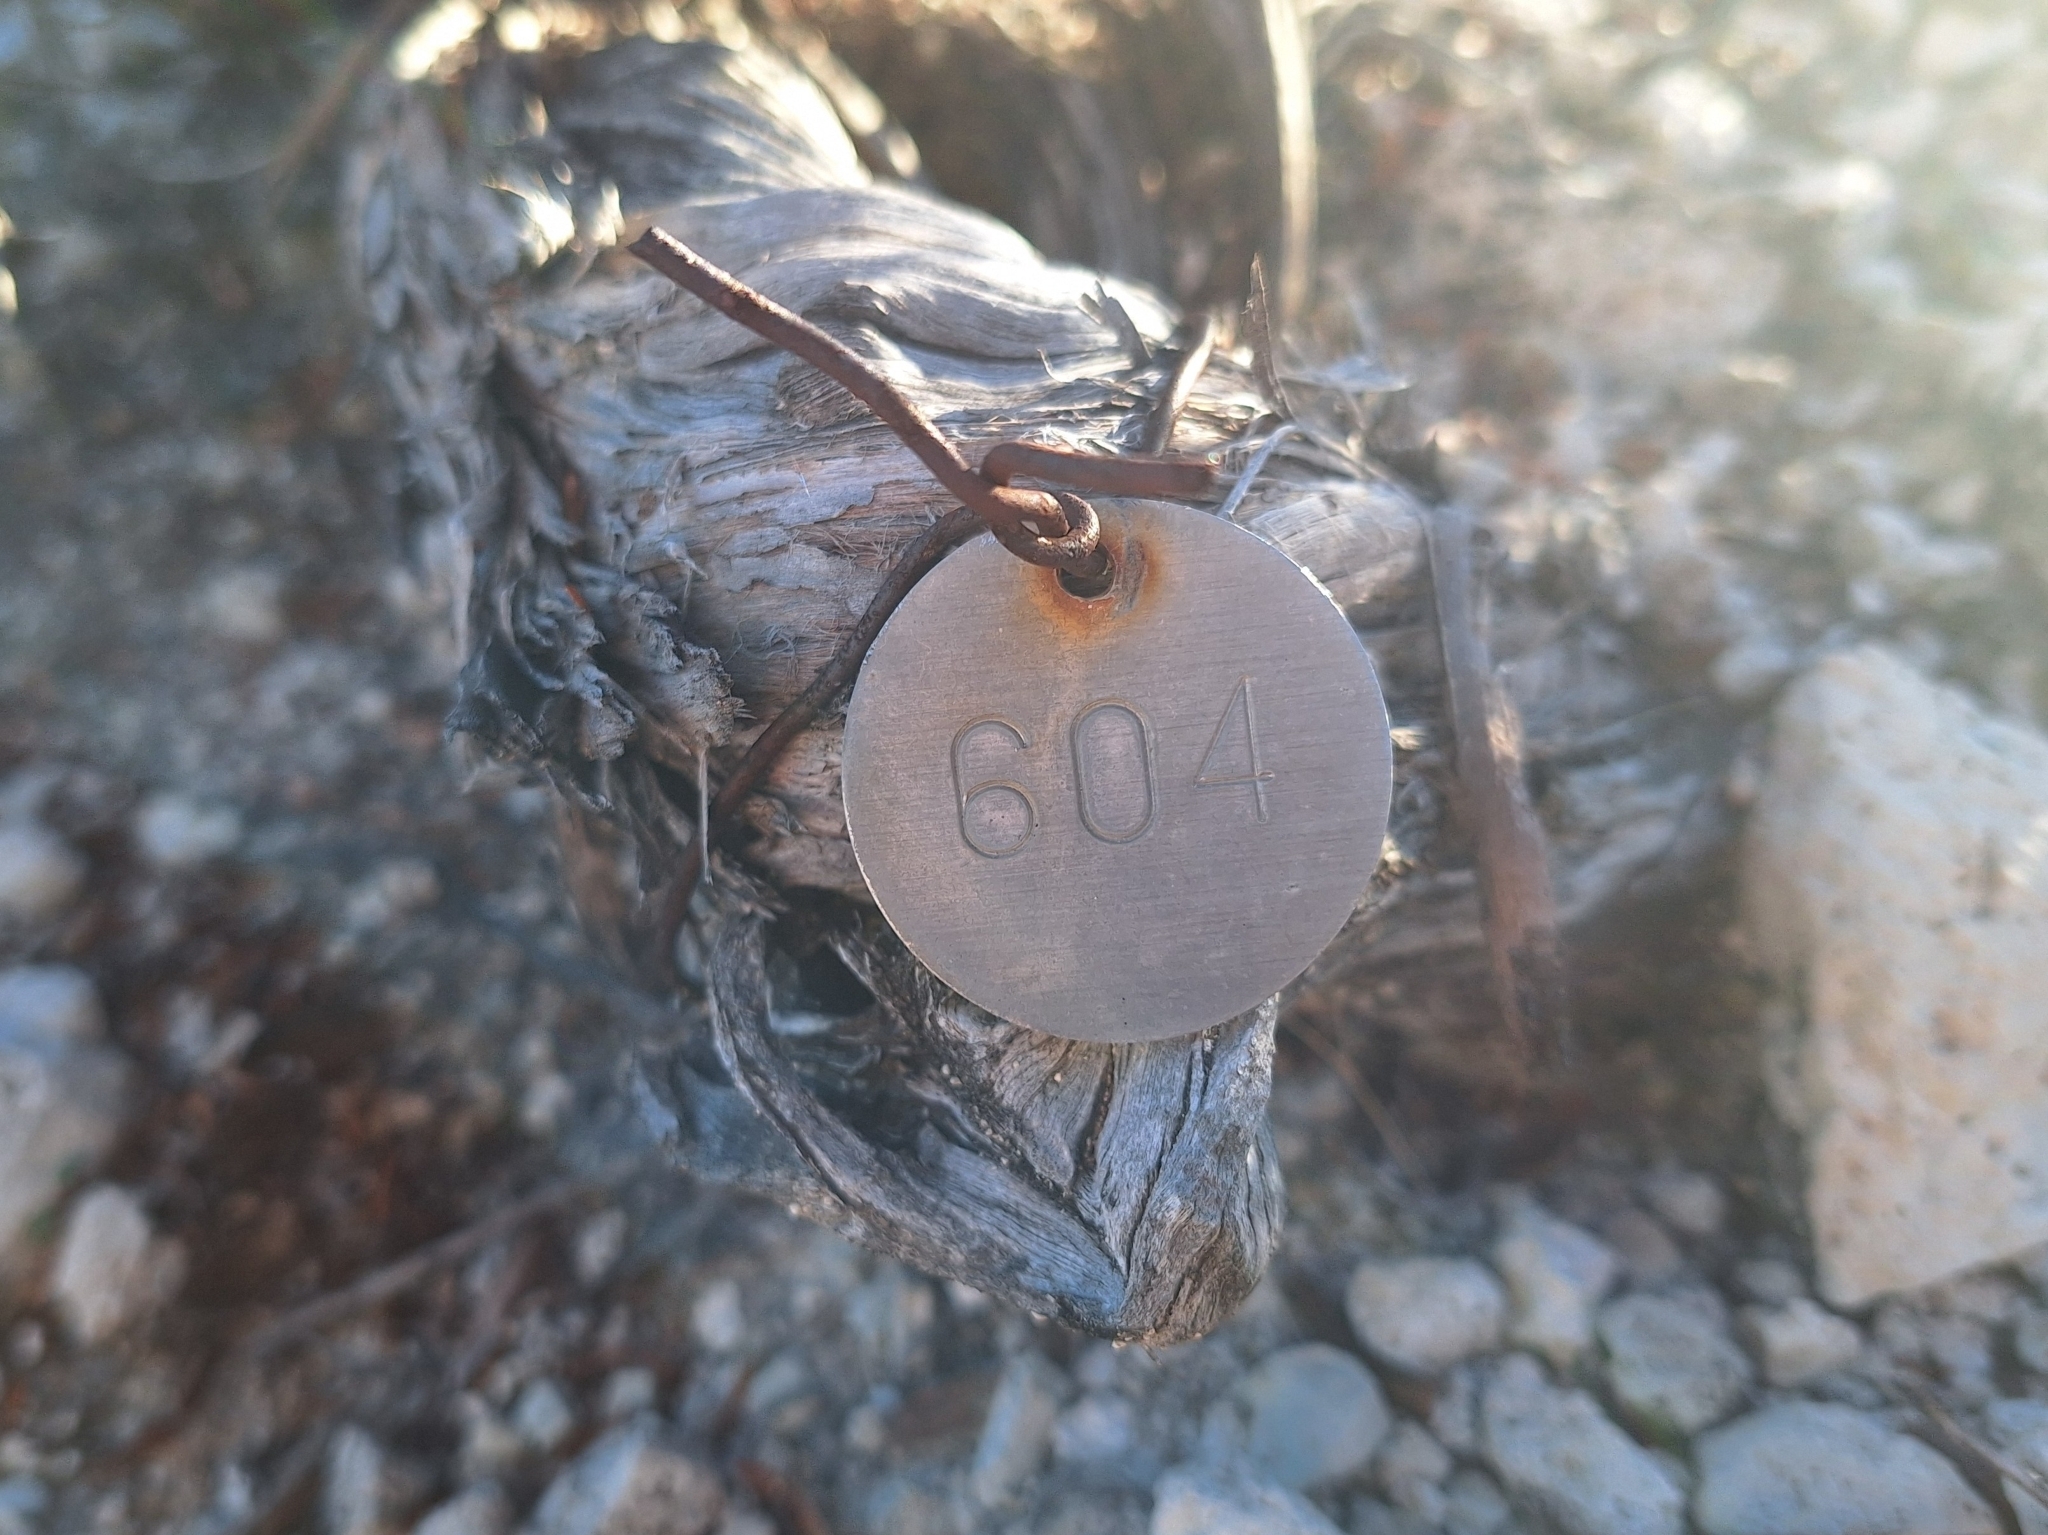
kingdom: Plantae
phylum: Tracheophyta
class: Magnoliopsida
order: Rosales
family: Rosaceae
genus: Purshia
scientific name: Purshia subintegra
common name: Arizona cliffrose
